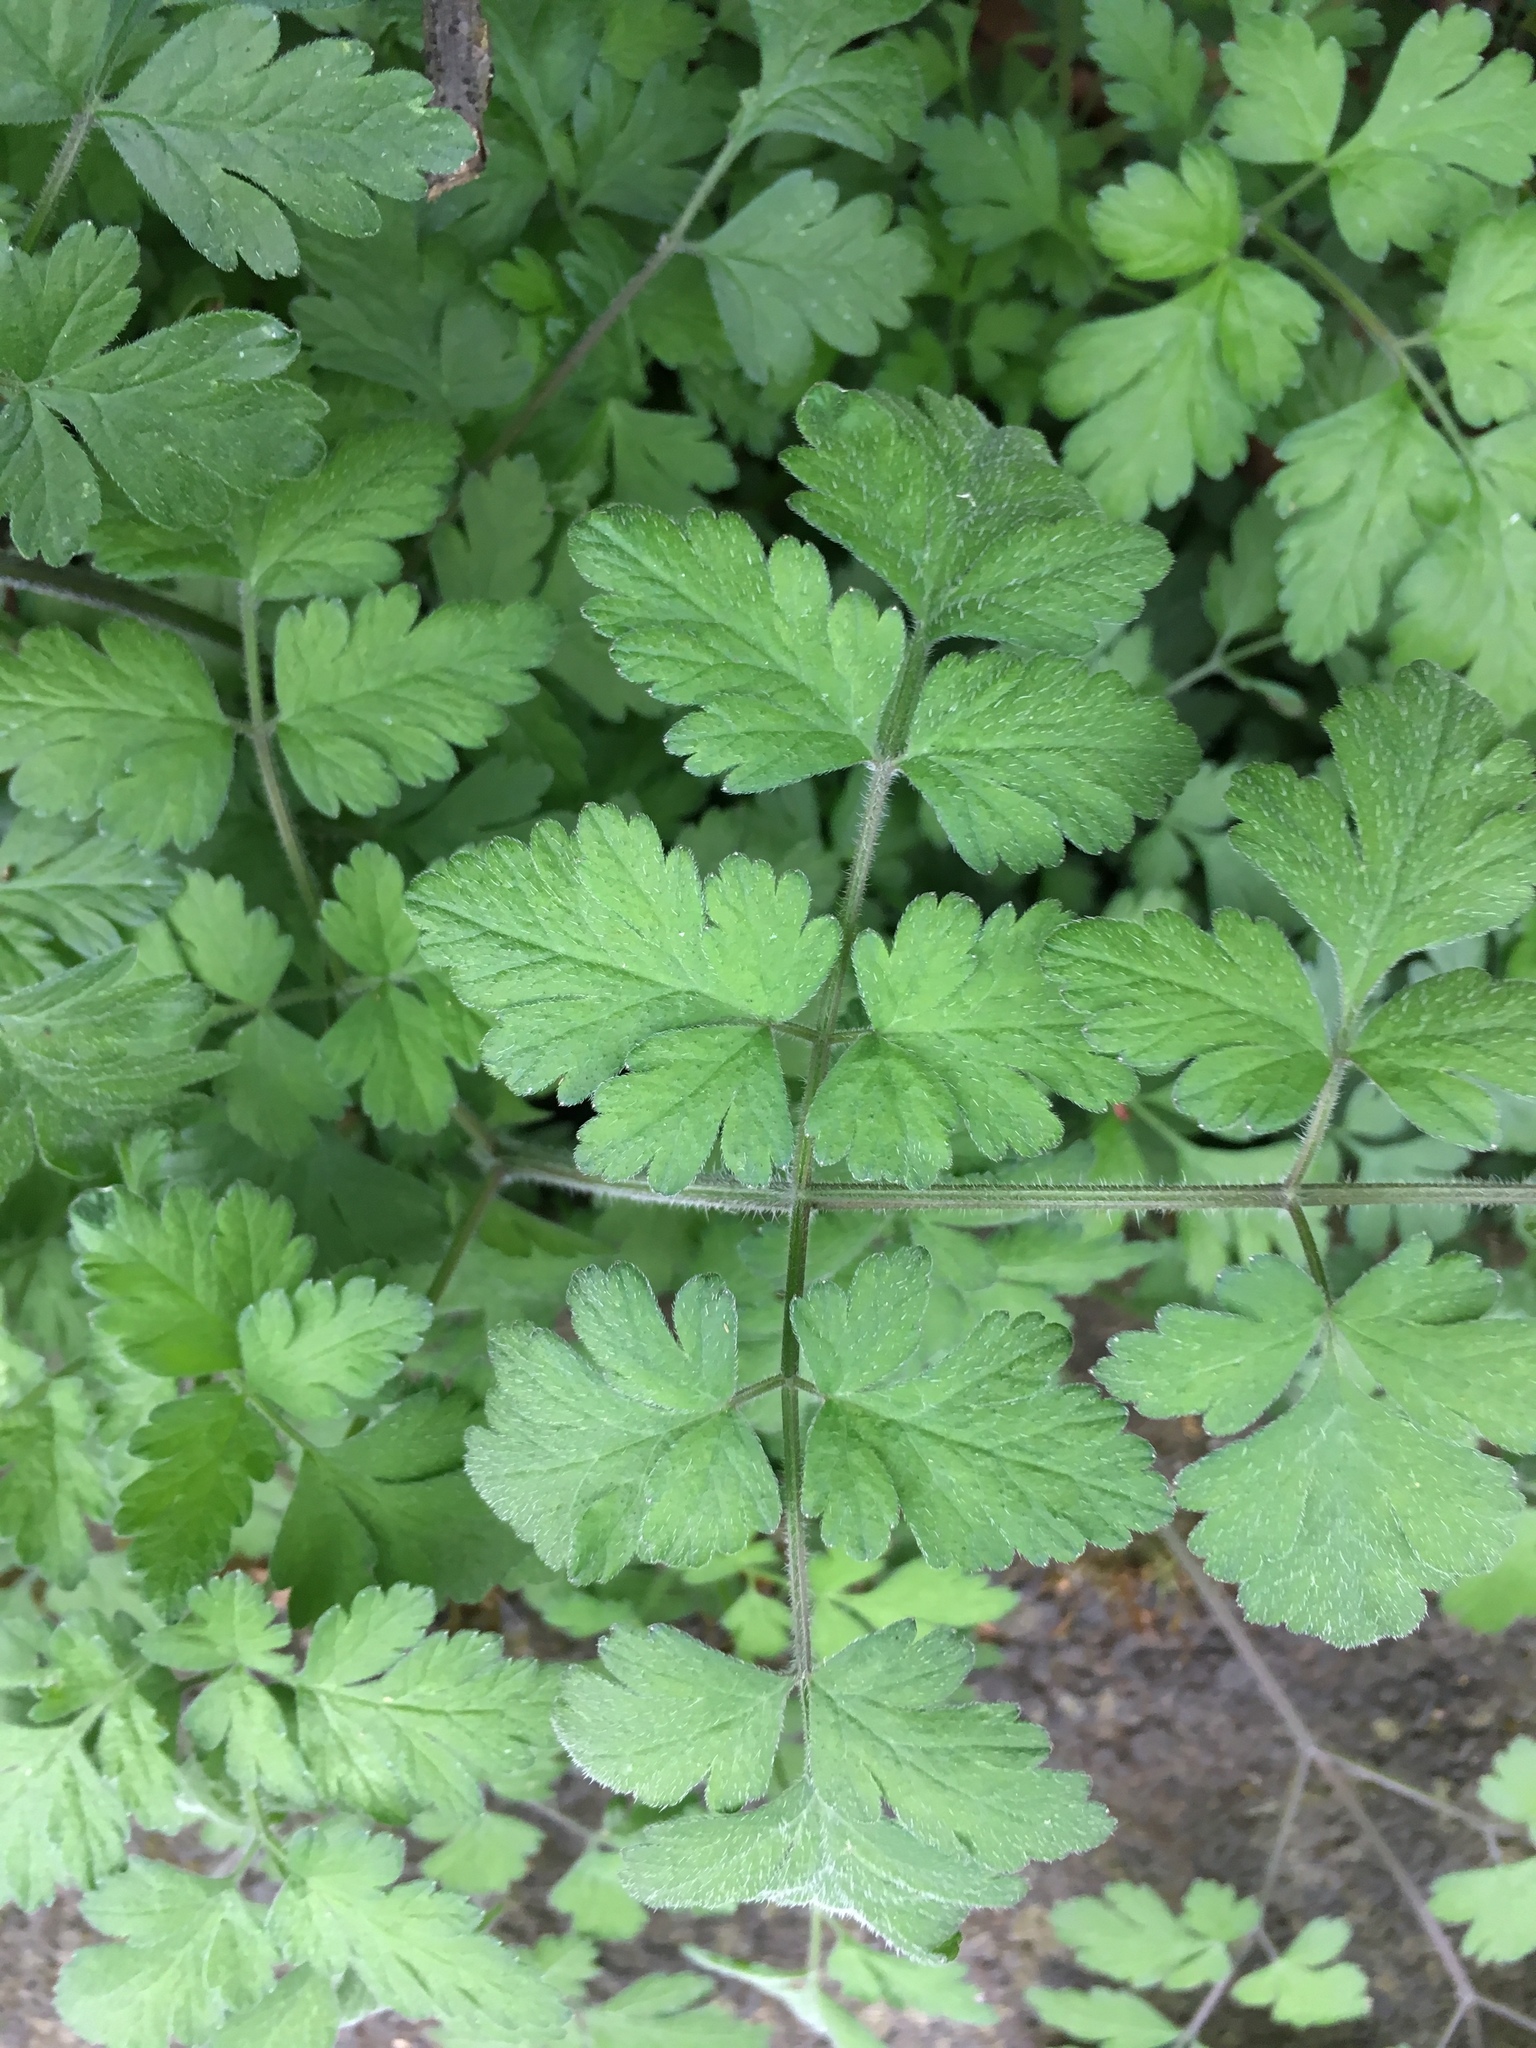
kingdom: Plantae
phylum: Tracheophyta
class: Magnoliopsida
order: Apiales
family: Apiaceae
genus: Chaerophyllum
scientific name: Chaerophyllum temulum
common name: Rough chervil
